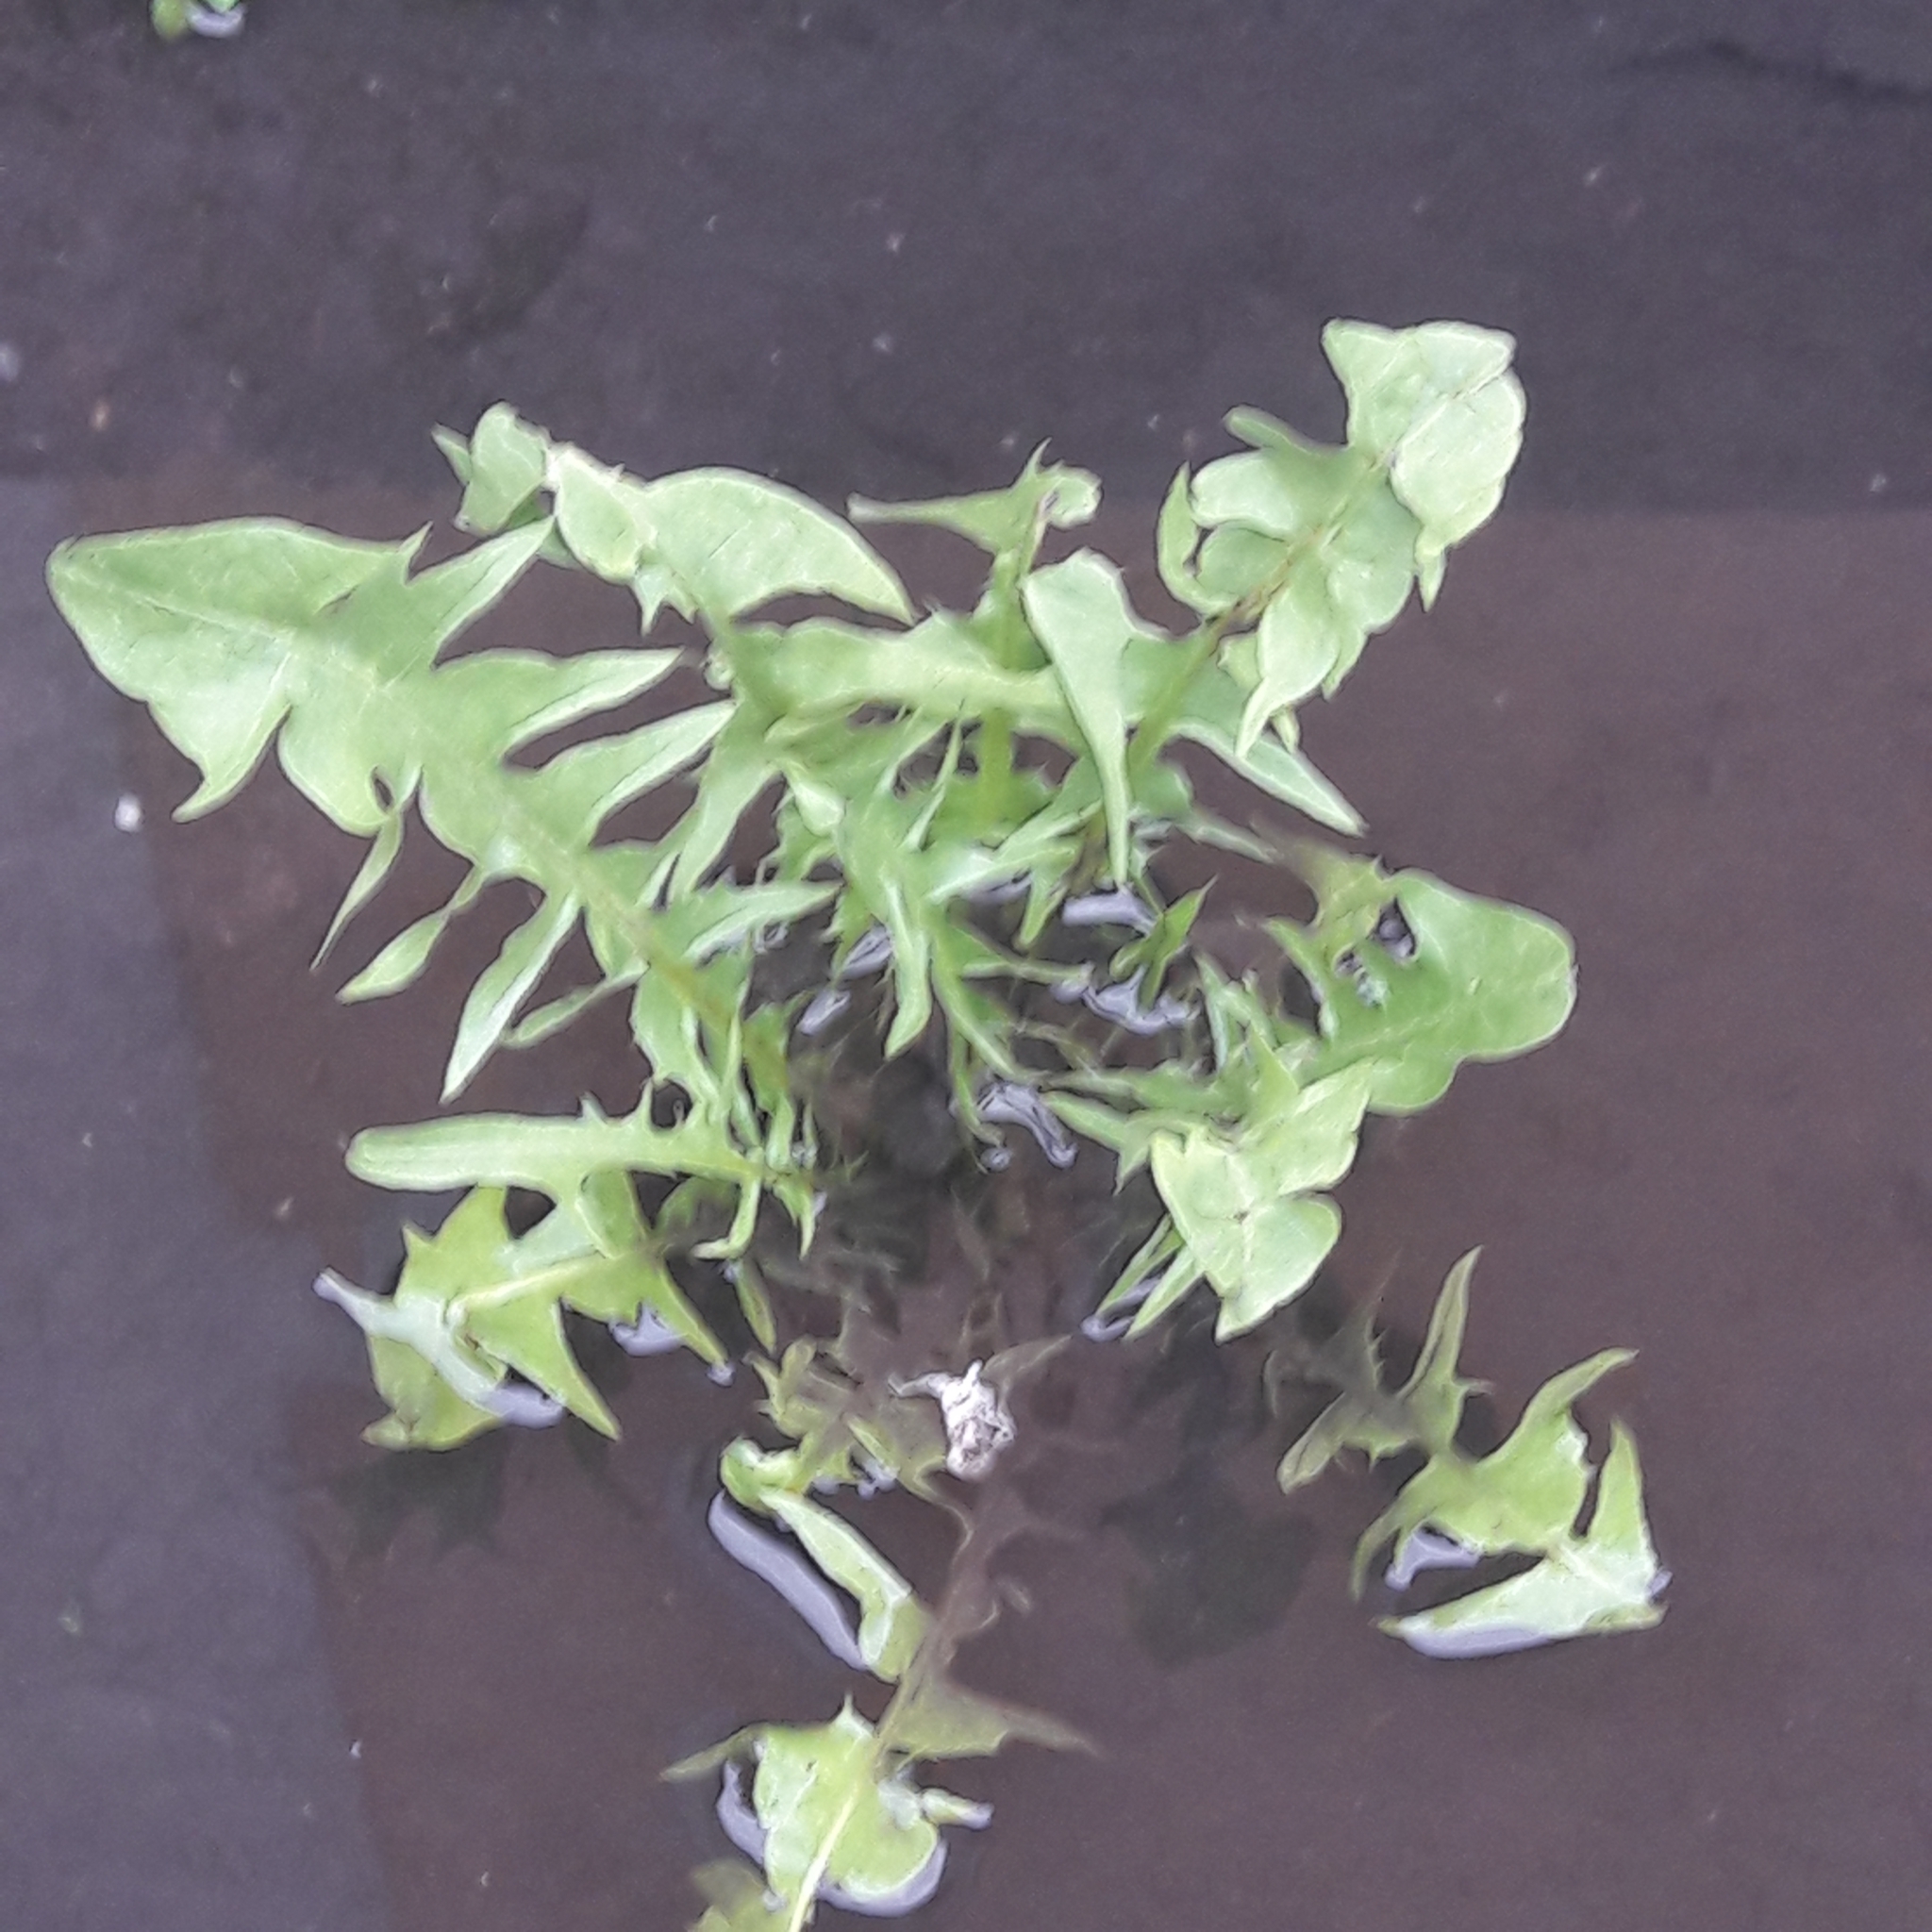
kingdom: Plantae
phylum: Tracheophyta
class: Magnoliopsida
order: Asterales
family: Asteraceae
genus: Taraxacum
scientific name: Taraxacum officinale
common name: Common dandelion
